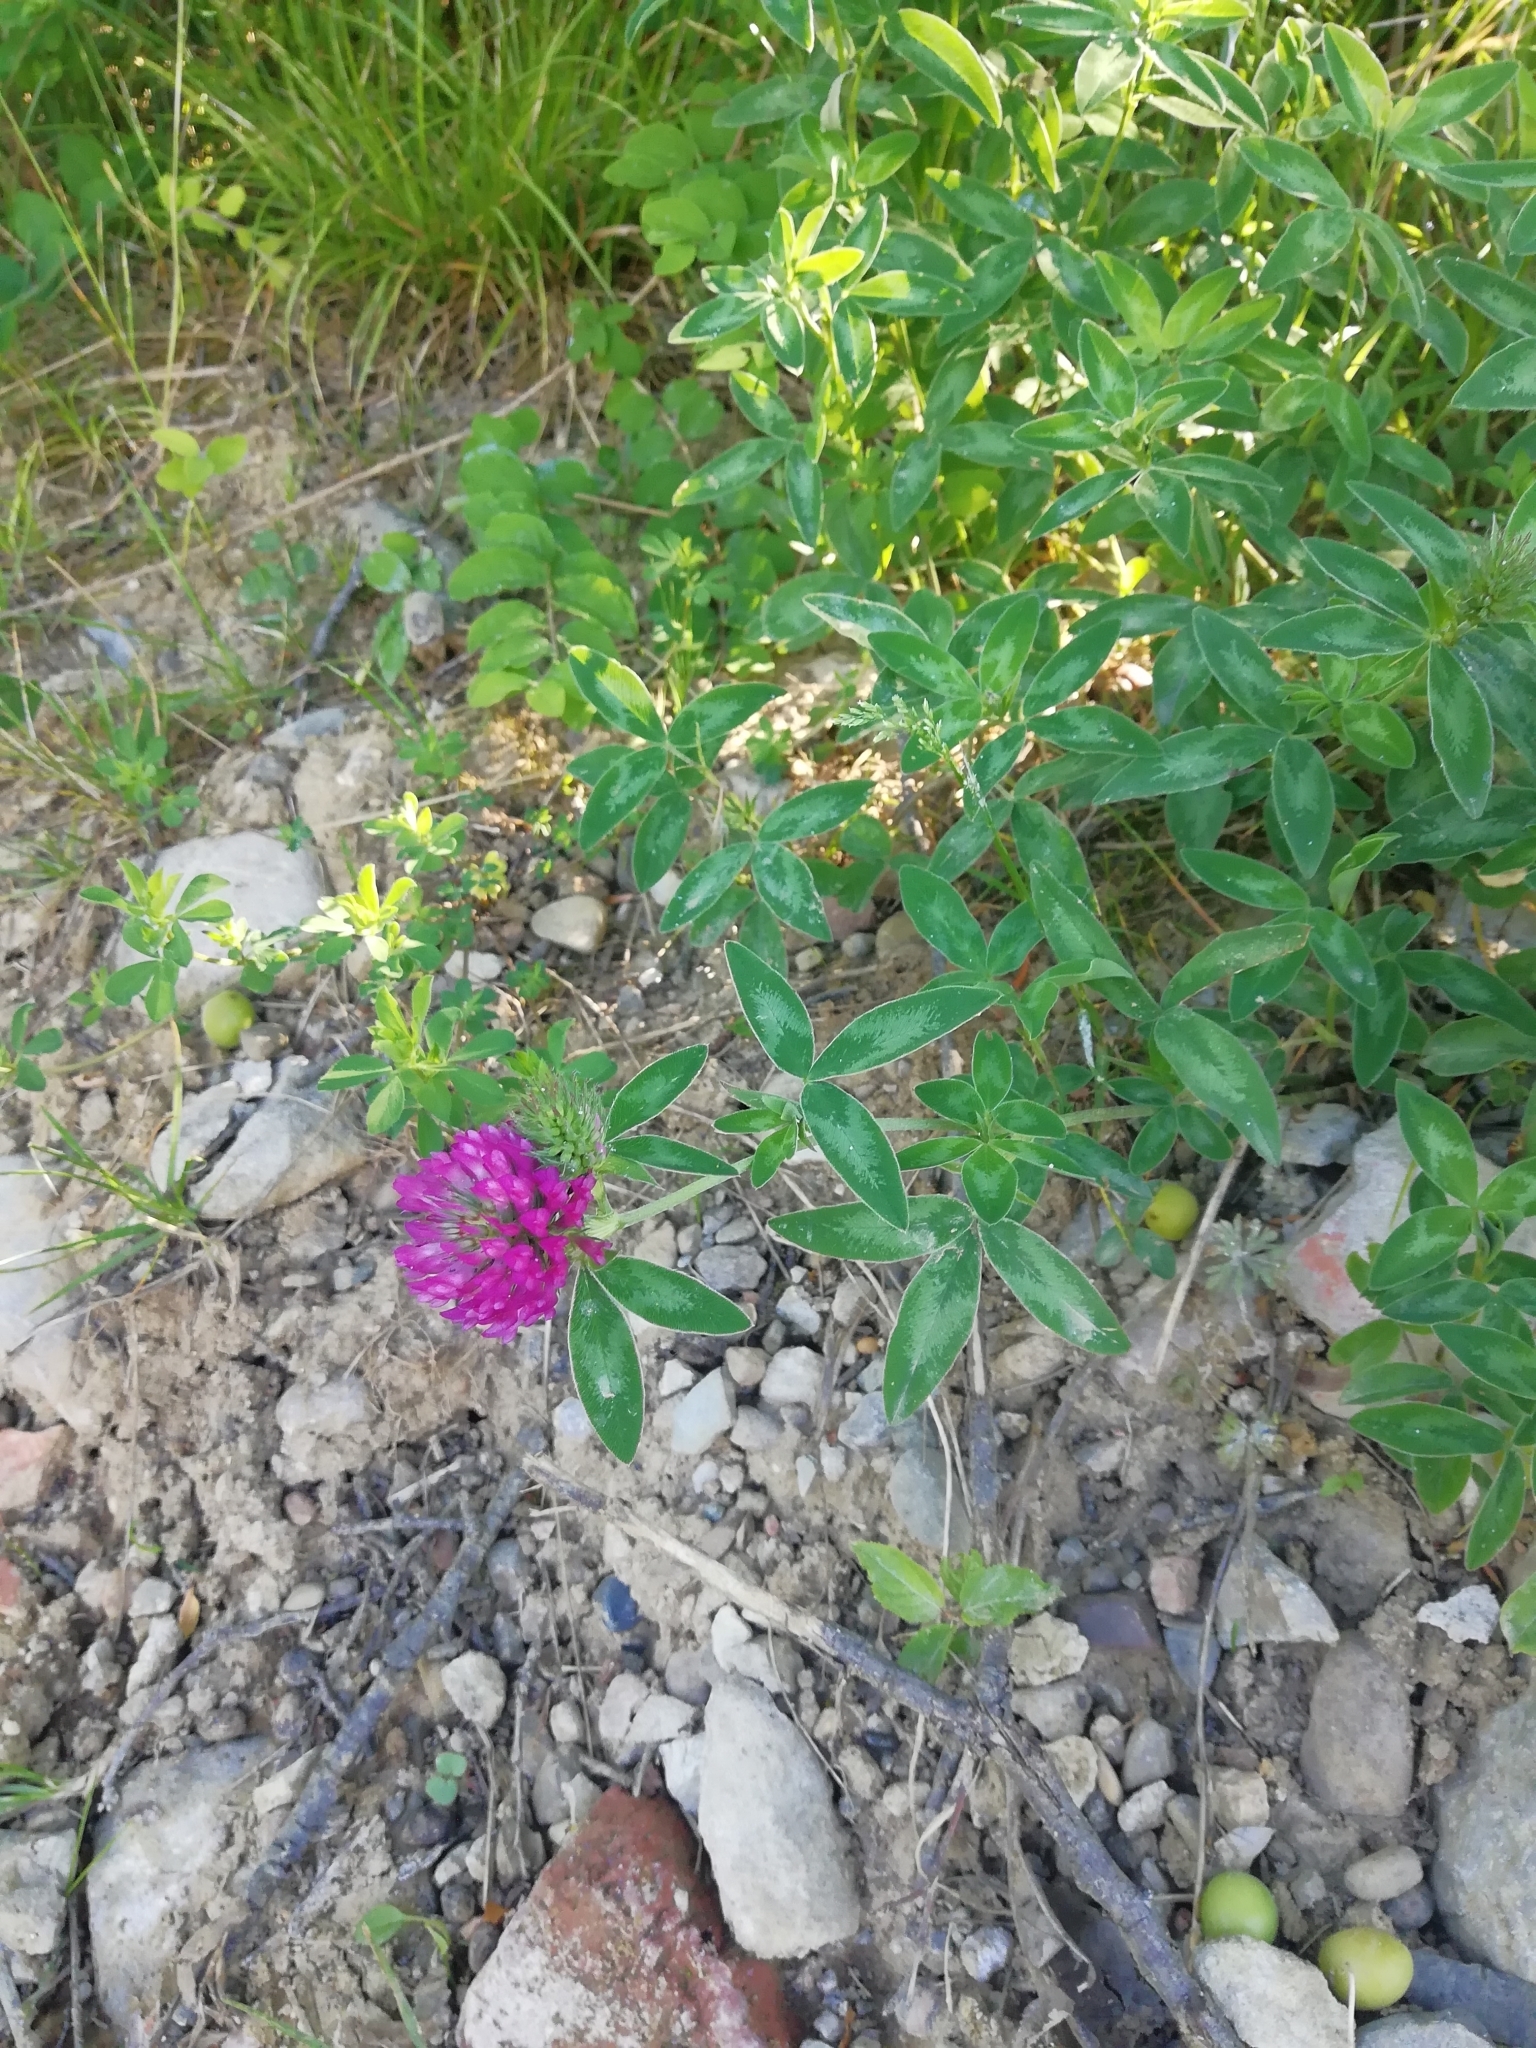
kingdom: Plantae
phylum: Tracheophyta
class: Magnoliopsida
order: Fabales
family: Fabaceae
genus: Trifolium
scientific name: Trifolium pratense
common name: Red clover
